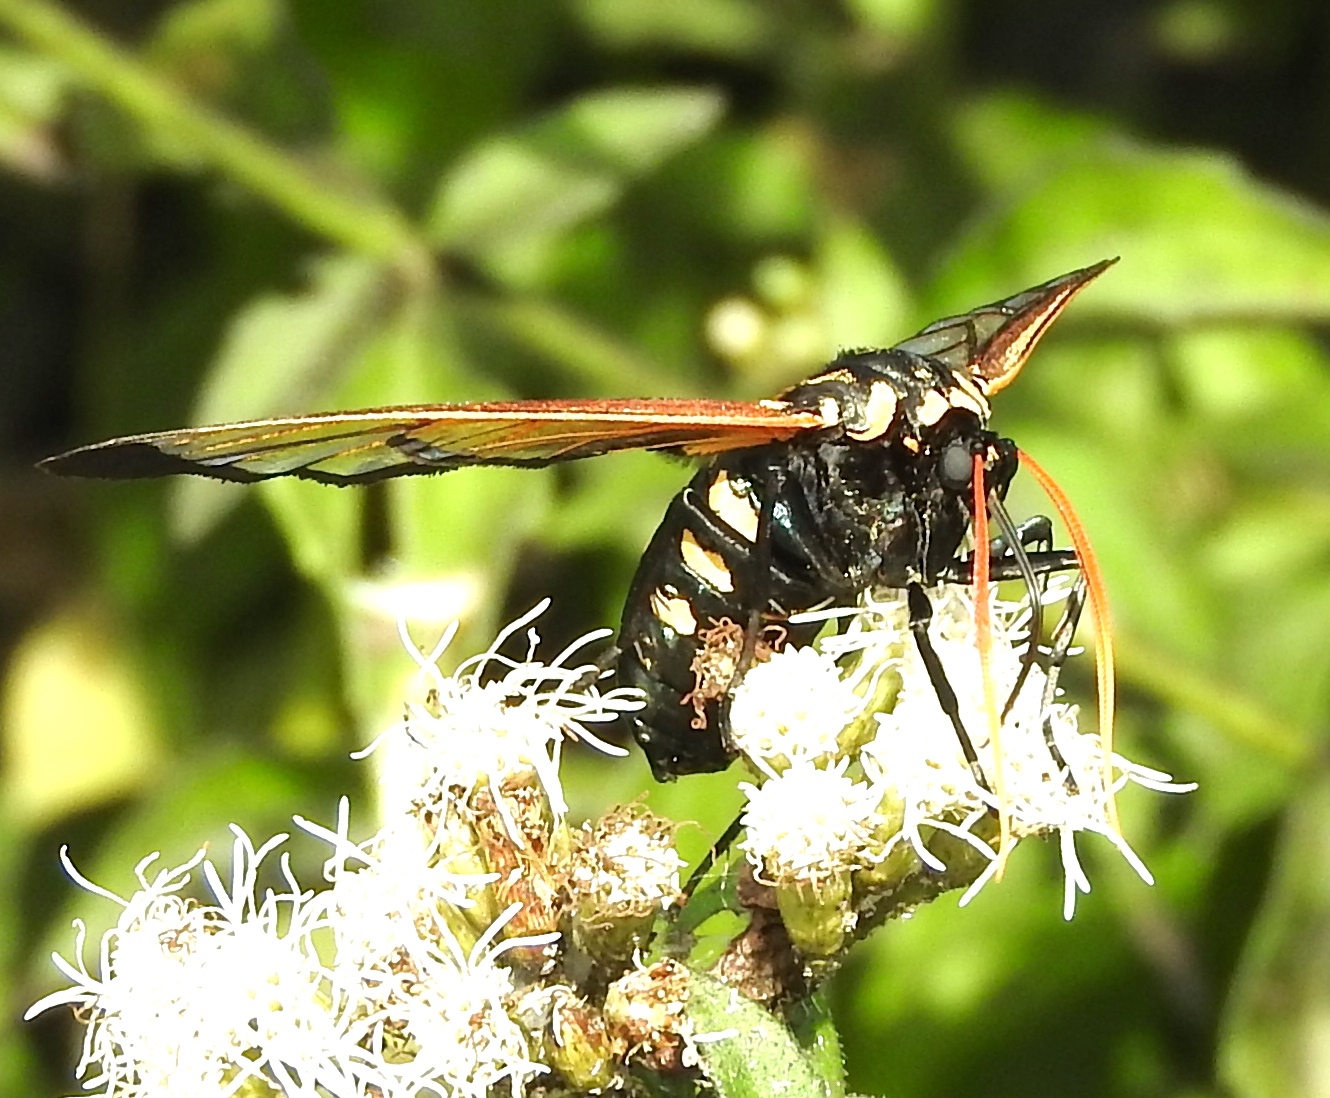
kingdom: Animalia
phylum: Arthropoda
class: Insecta
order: Lepidoptera
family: Erebidae
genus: Isanthrene
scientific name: Isanthrene pyrocera
